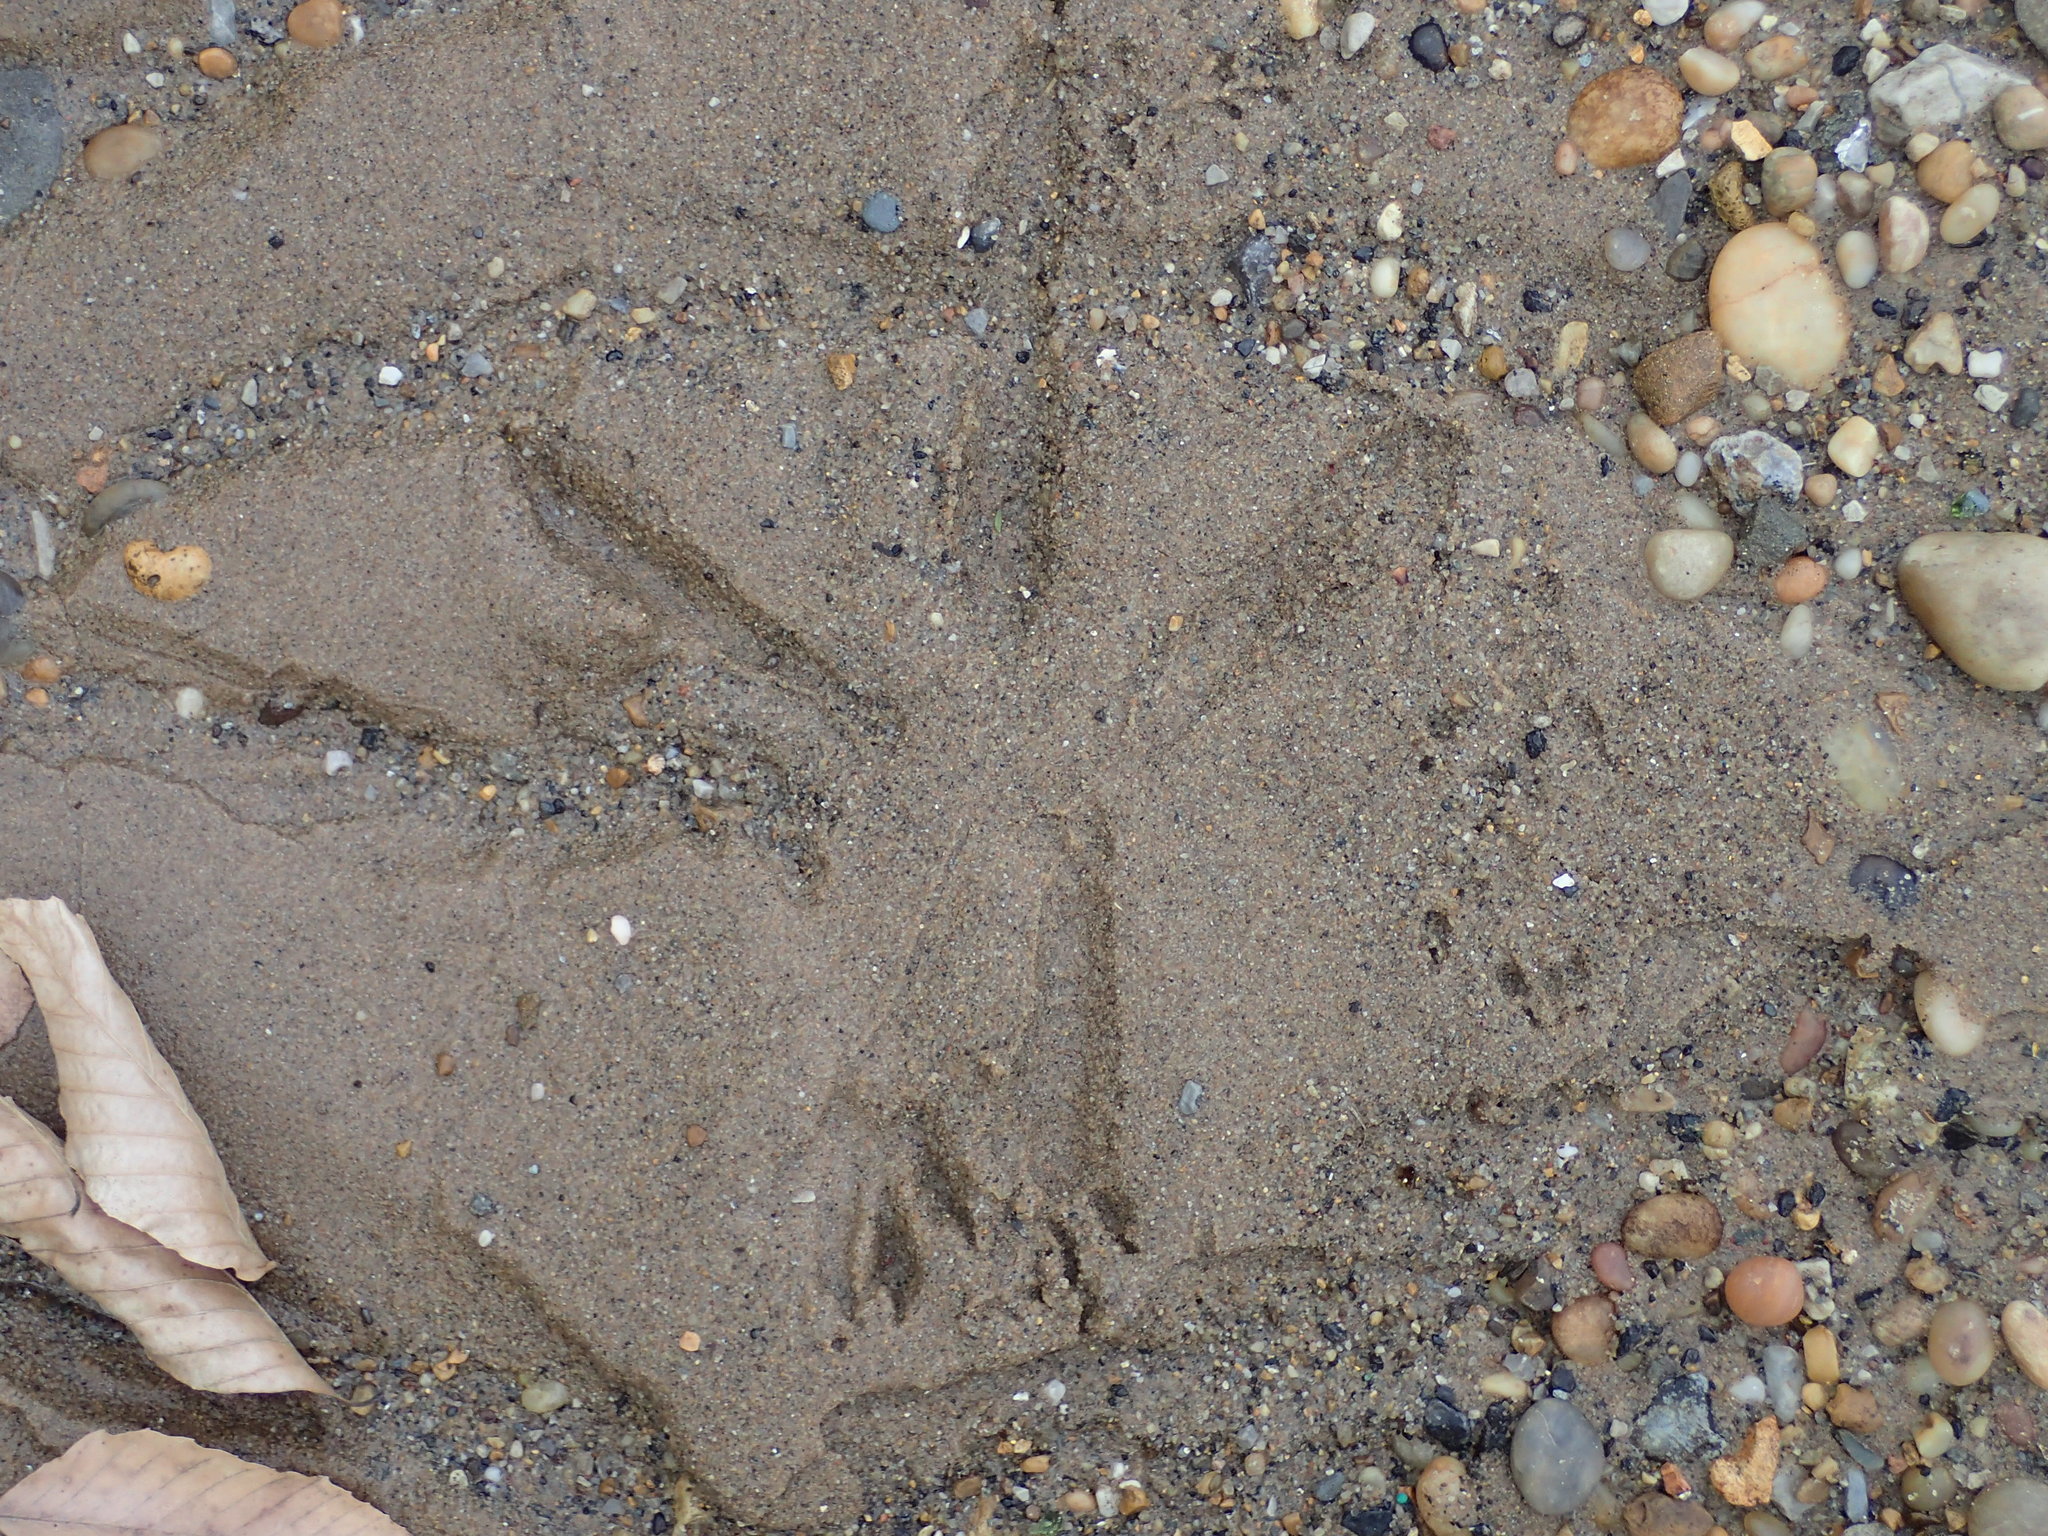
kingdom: Animalia
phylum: Chordata
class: Aves
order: Pelecaniformes
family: Ardeidae
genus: Ardea
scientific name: Ardea herodias
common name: Great blue heron
